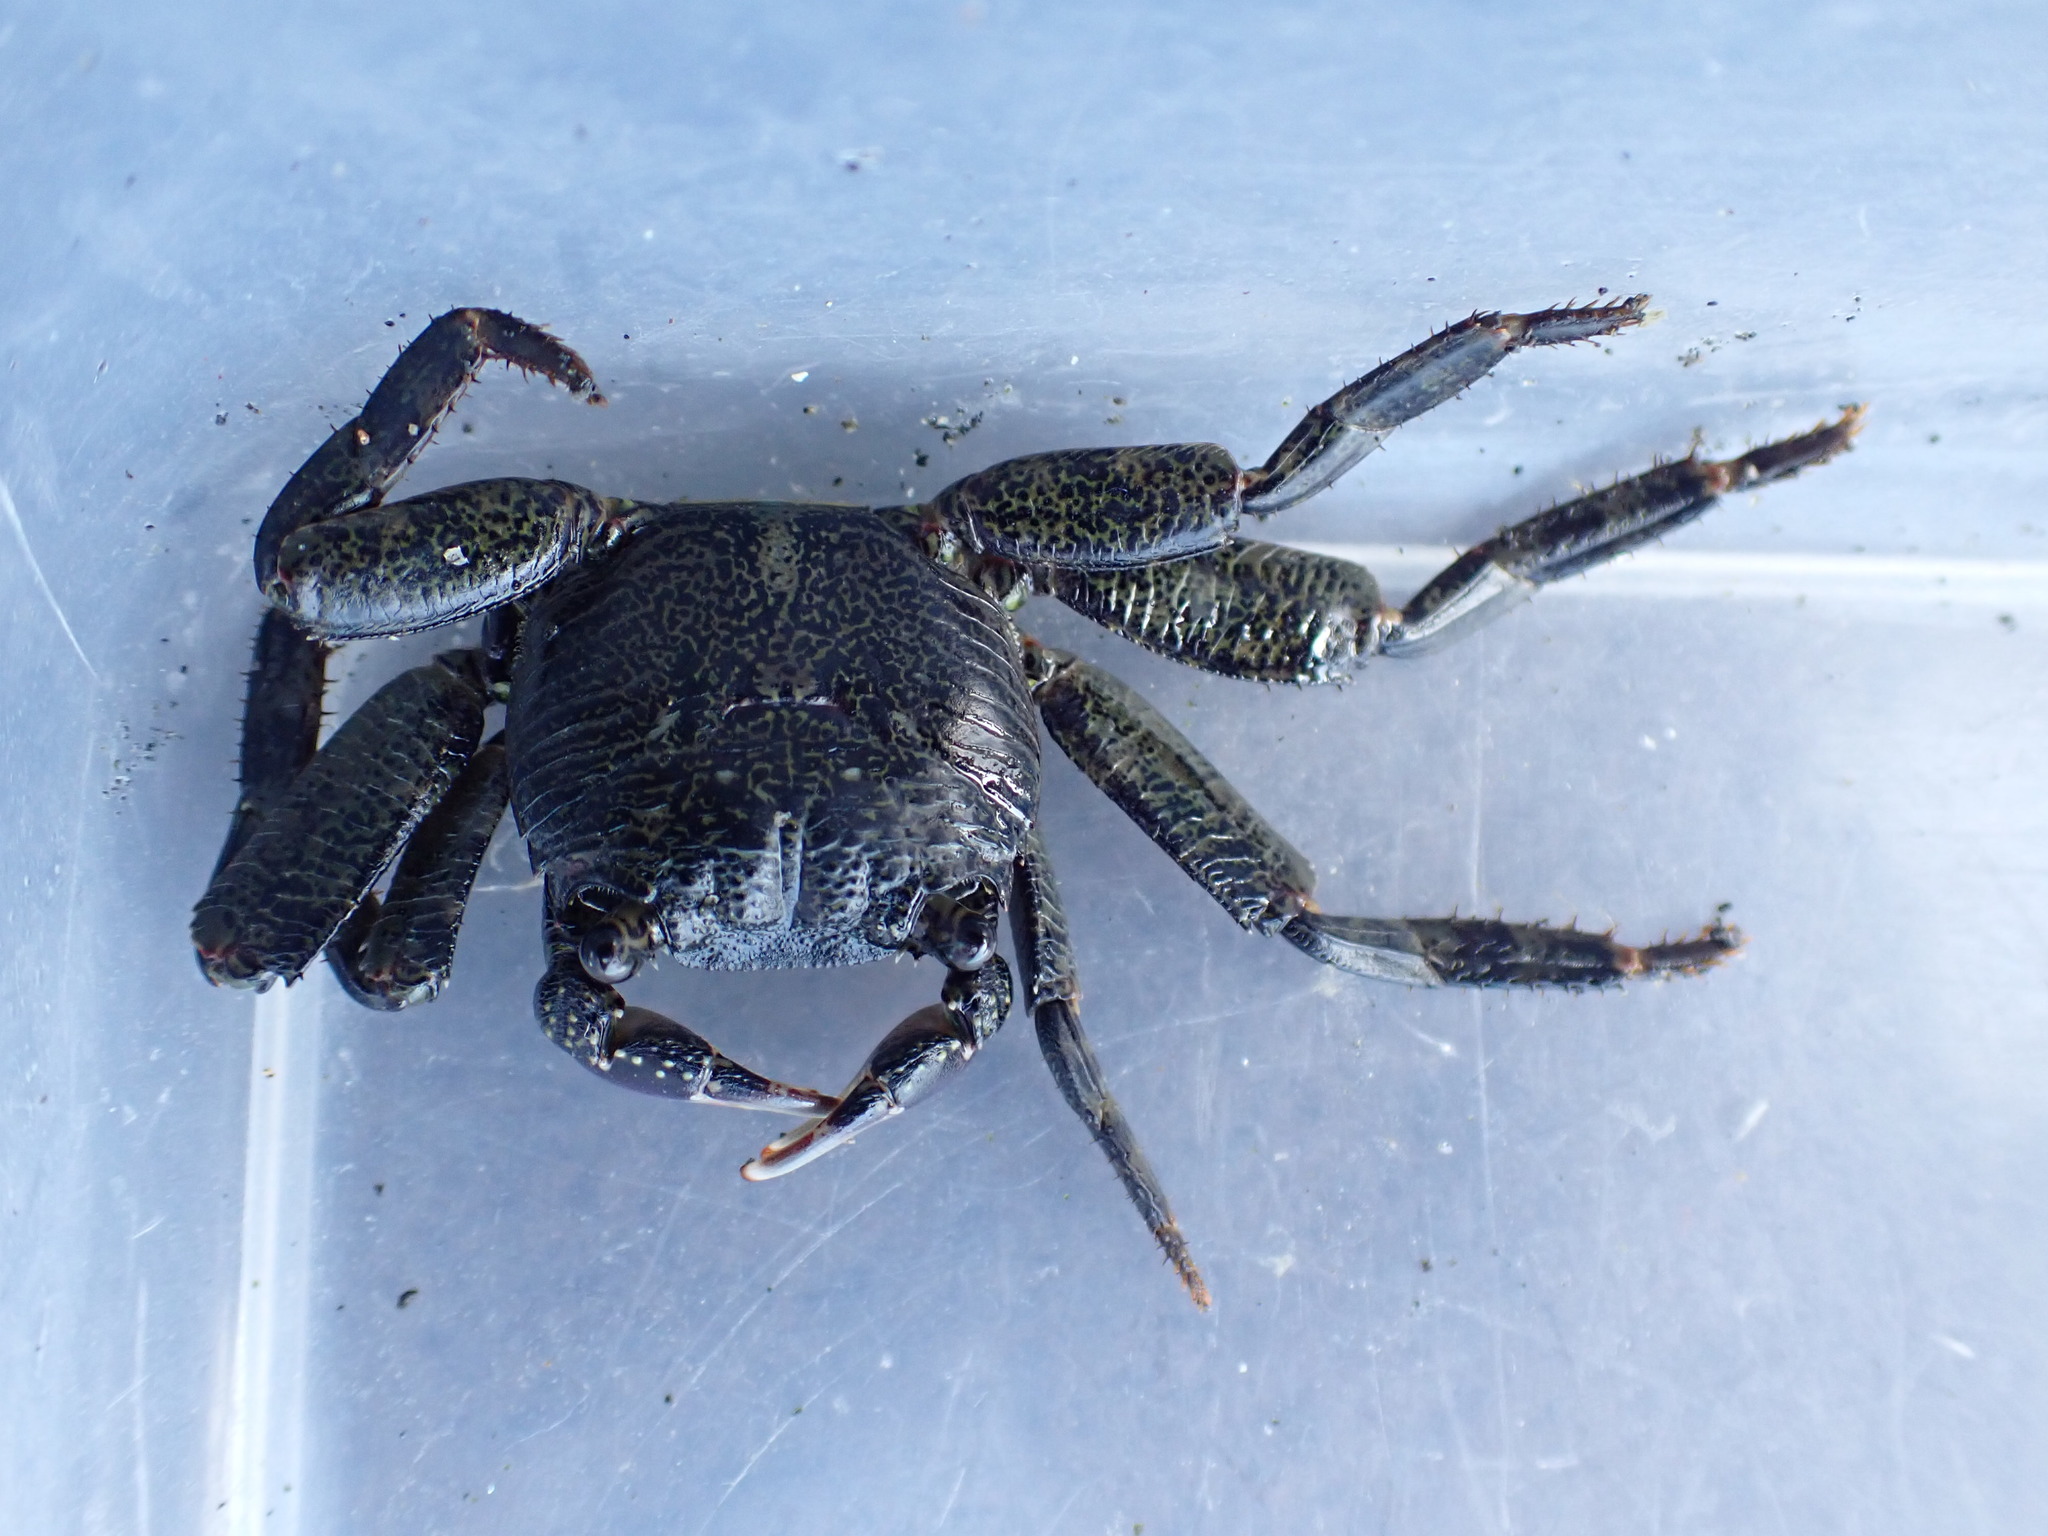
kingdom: Animalia
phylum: Arthropoda
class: Malacostraca
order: Decapoda
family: Grapsidae
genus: Leptograpsus
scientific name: Leptograpsus variegatus
